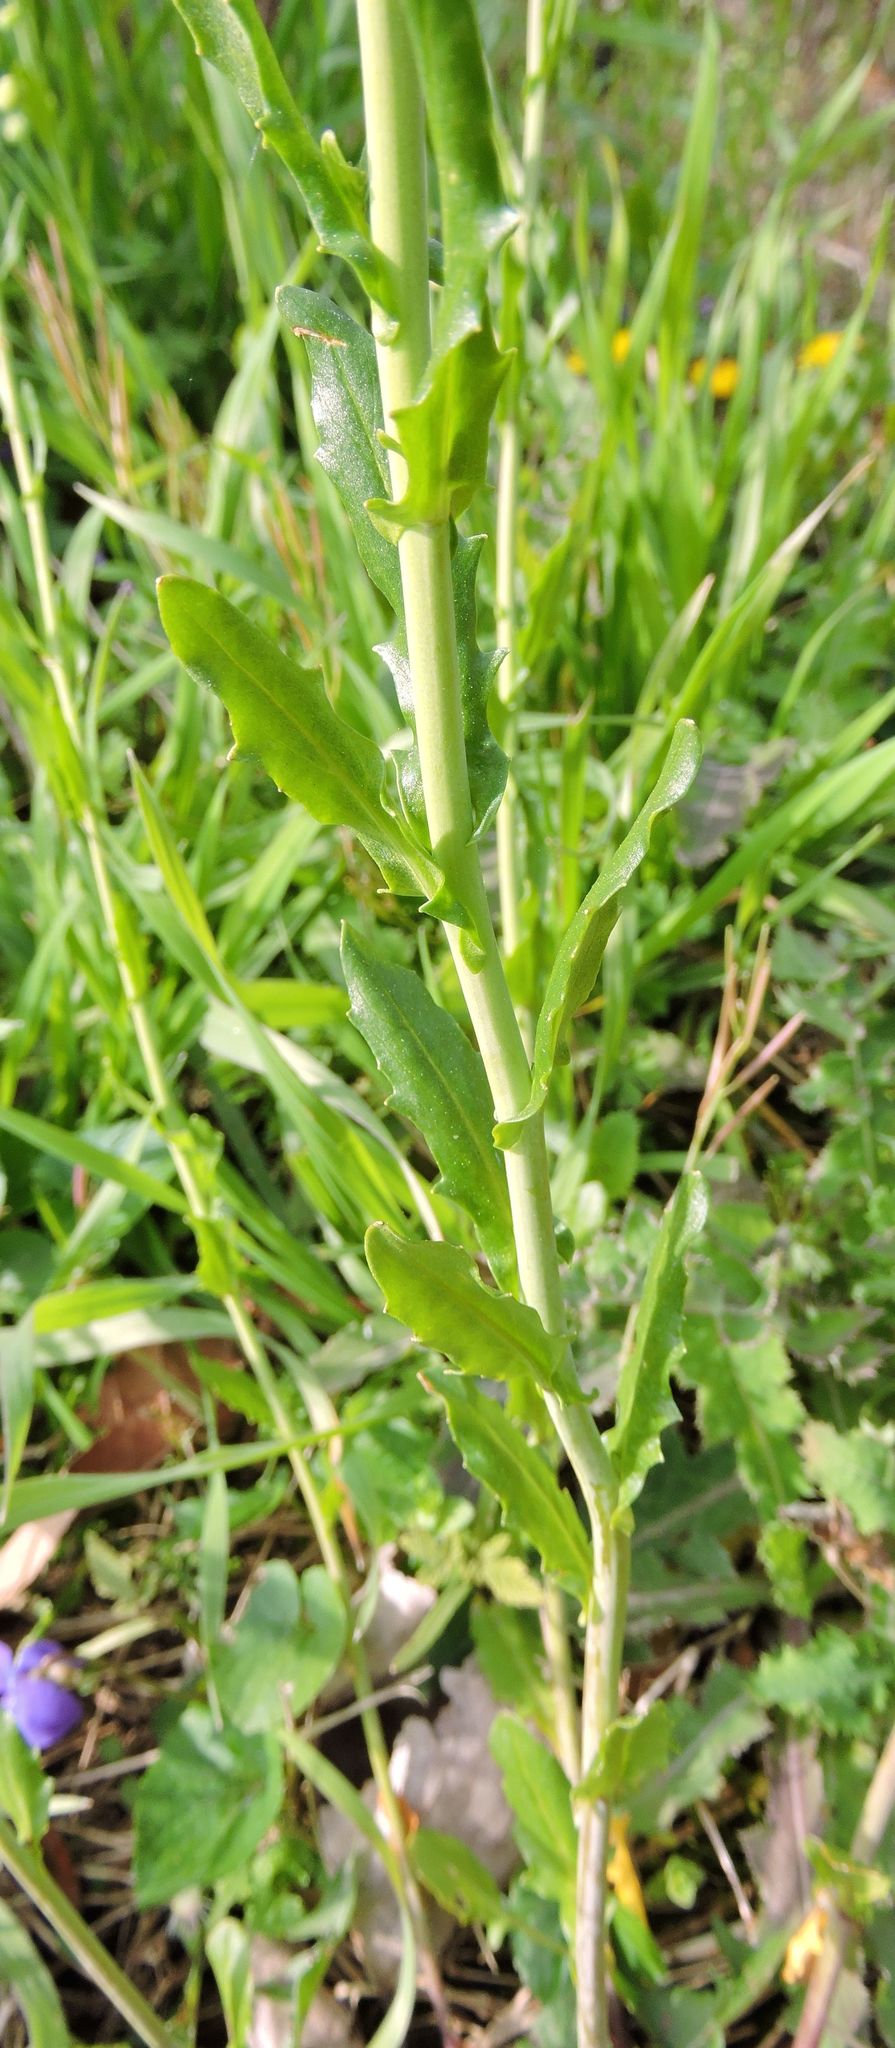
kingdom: Plantae
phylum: Tracheophyta
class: Magnoliopsida
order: Brassicales
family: Brassicaceae
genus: Lepidium
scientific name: Lepidium virginicum
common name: Least pepperwort
